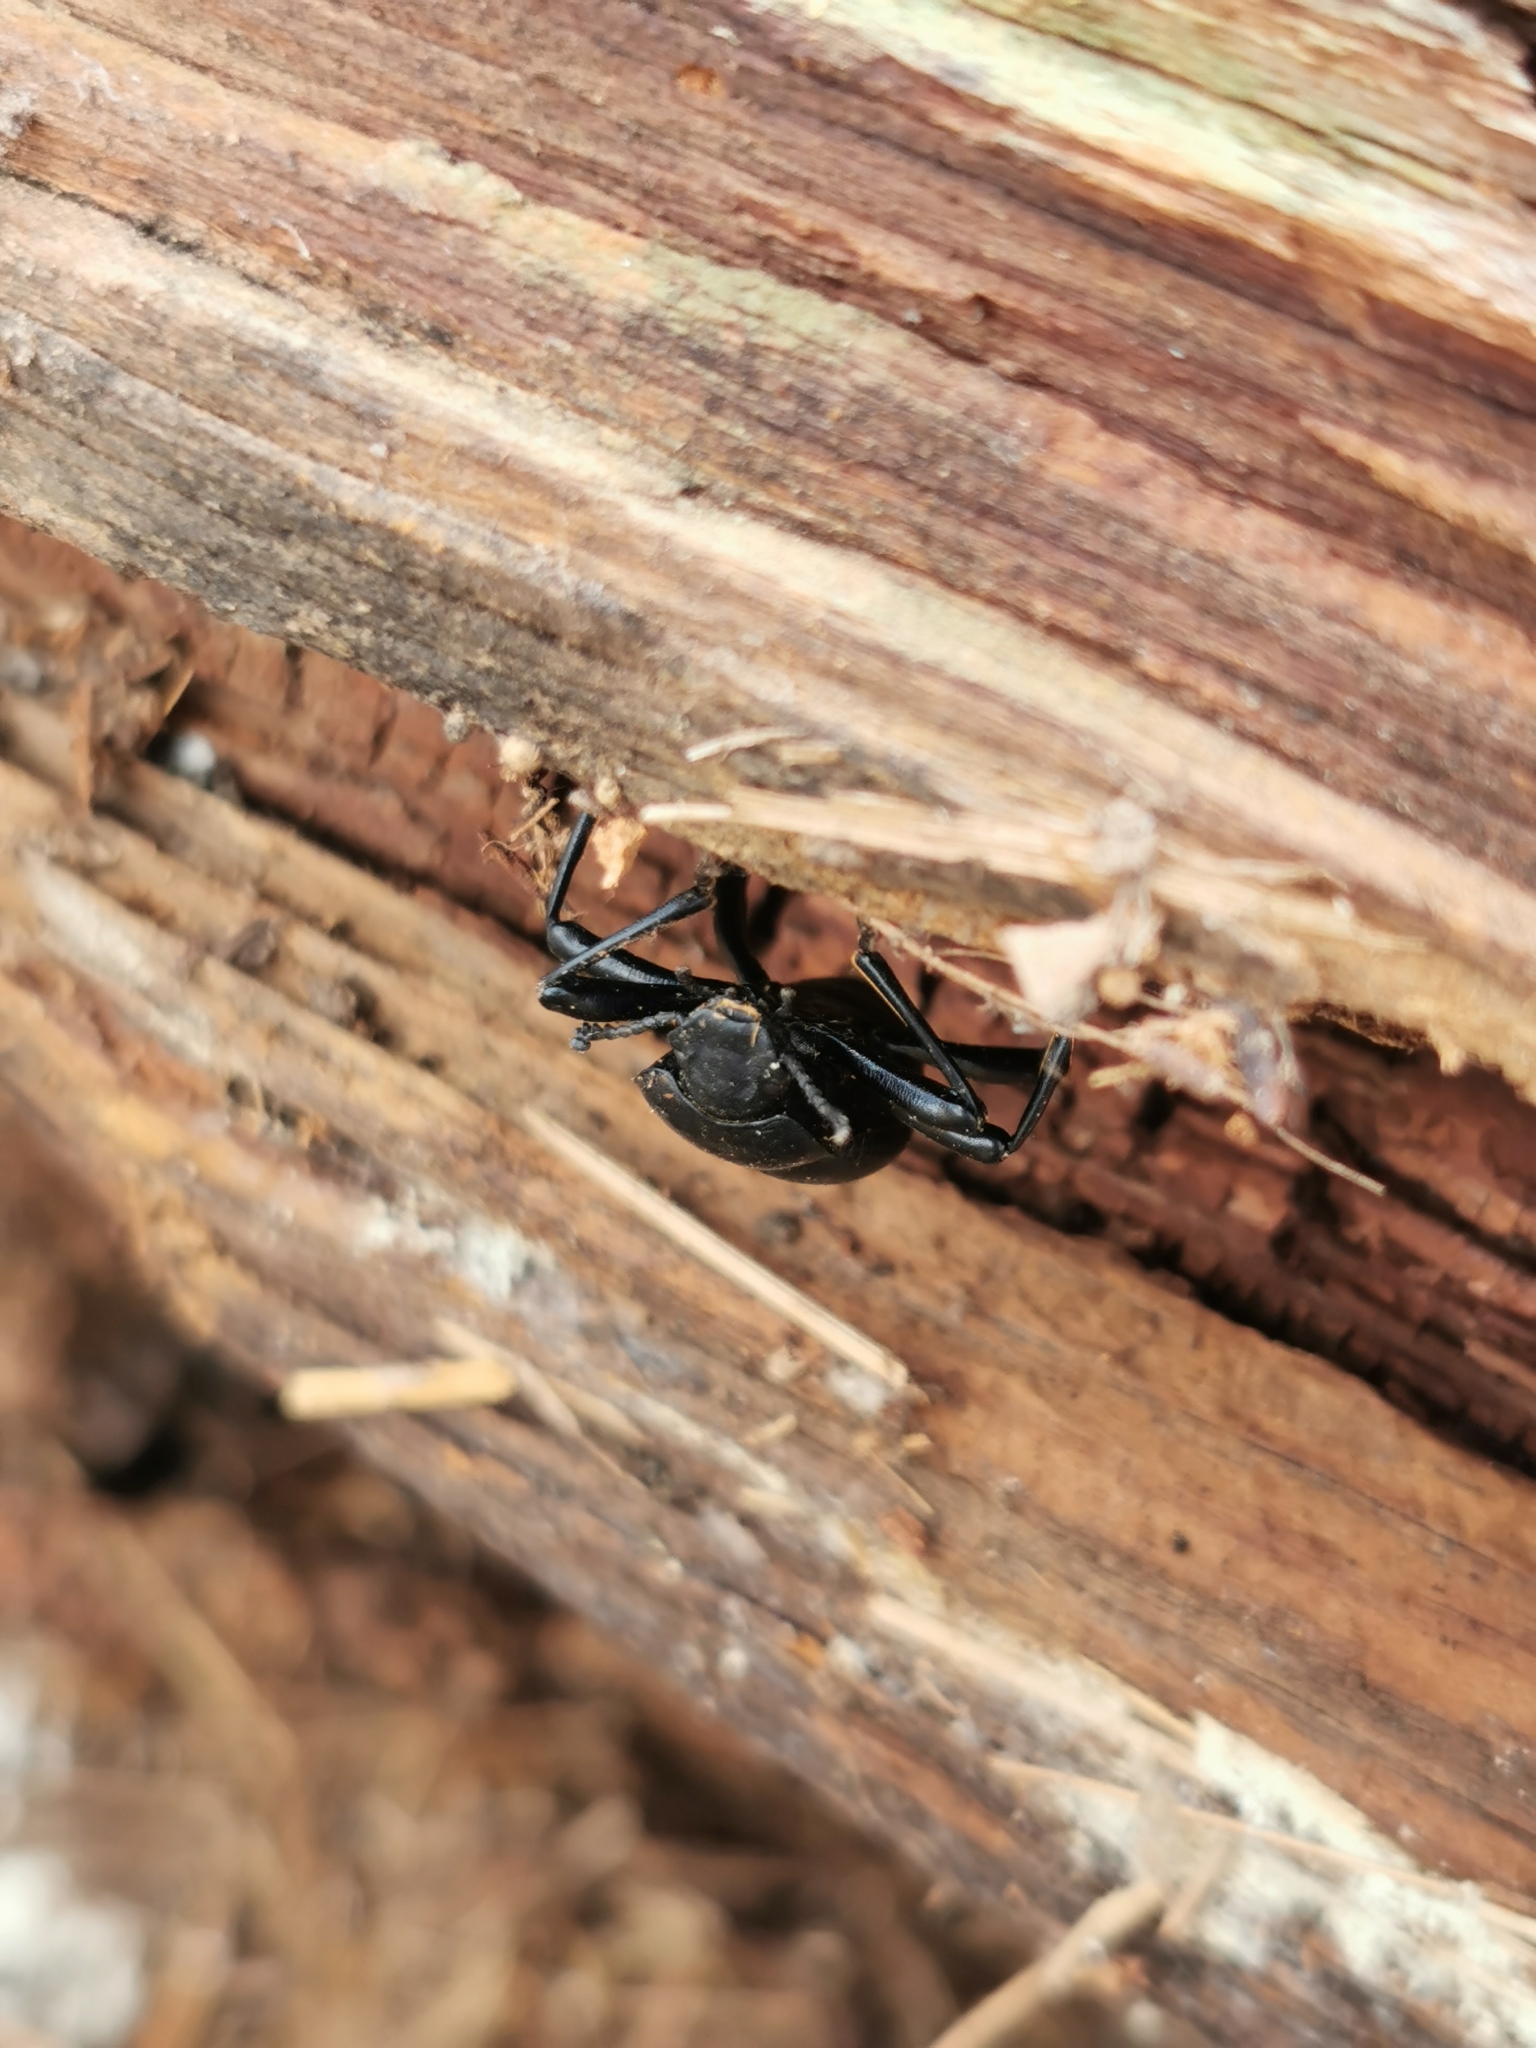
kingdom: Animalia
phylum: Arthropoda
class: Insecta
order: Coleoptera
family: Tenebrionidae
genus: Coelocnemis
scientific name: Coelocnemis dilaticollis
